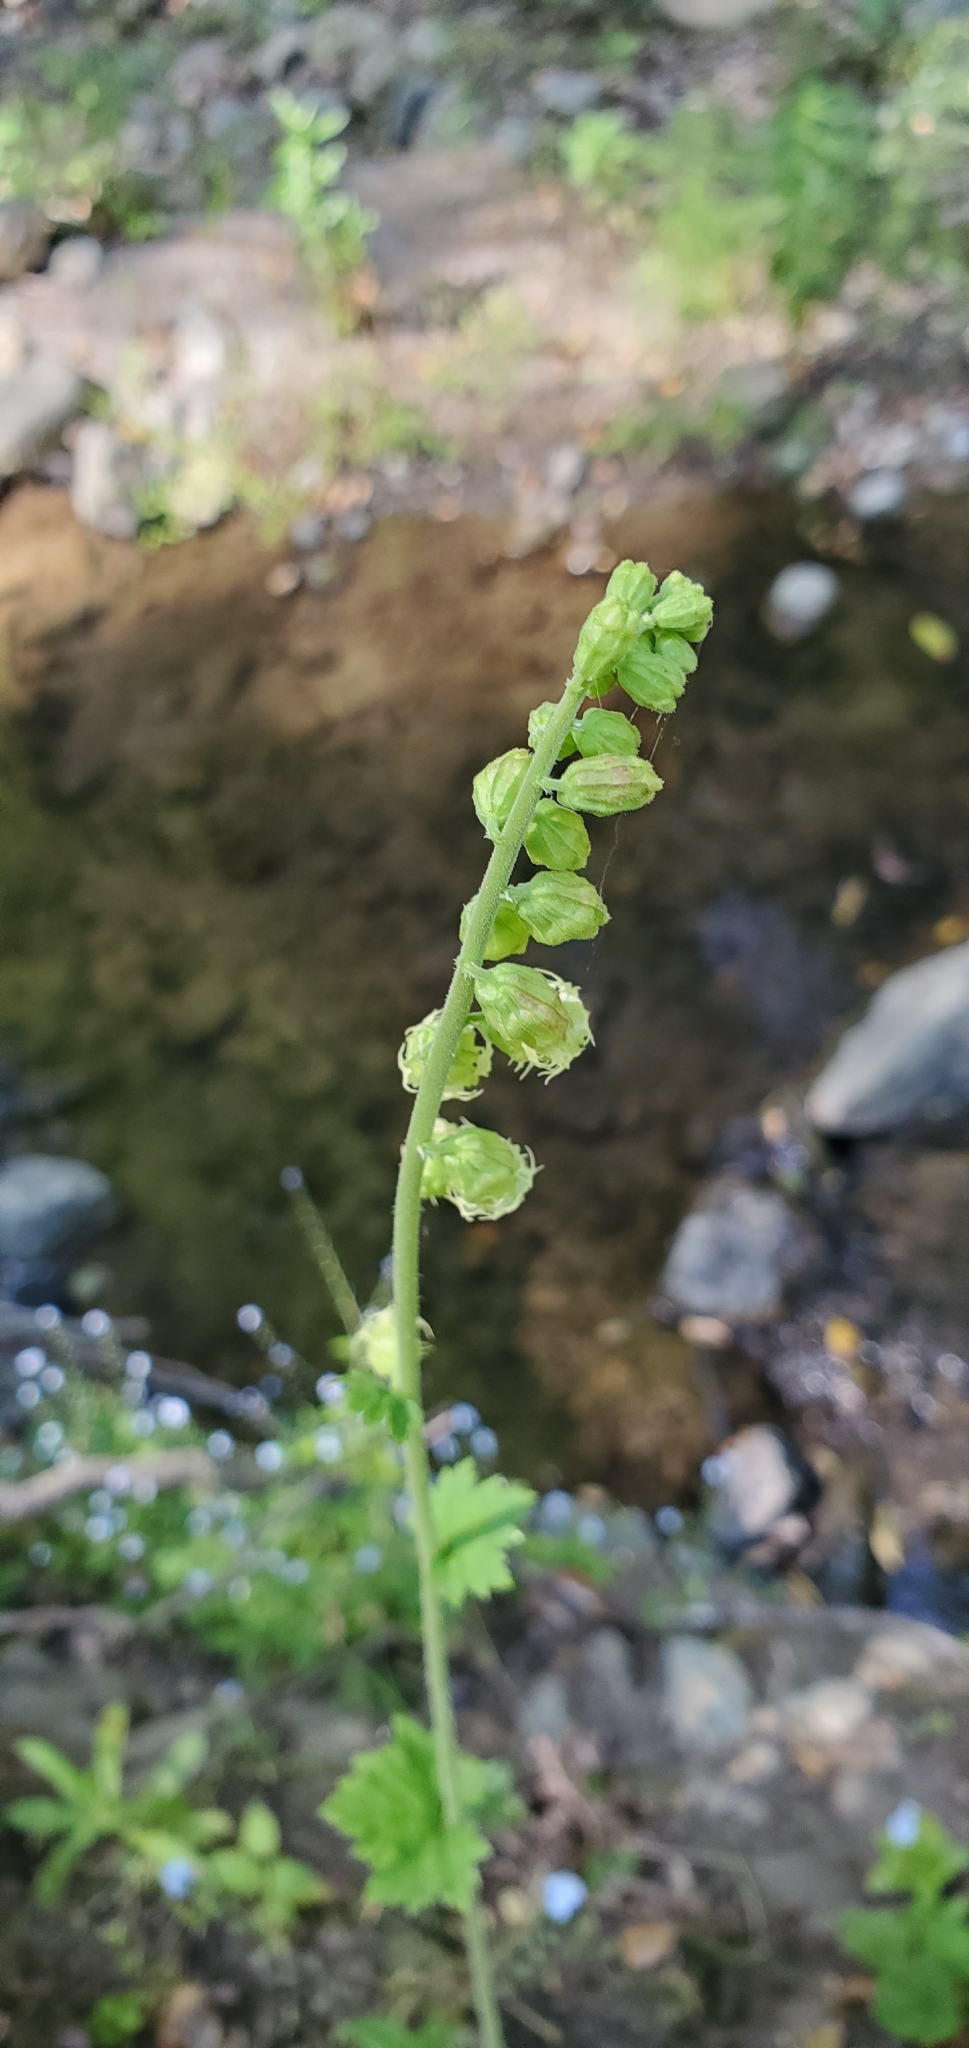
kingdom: Plantae
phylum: Tracheophyta
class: Magnoliopsida
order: Saxifragales
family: Saxifragaceae
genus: Tellima
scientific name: Tellima grandiflora
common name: Fringecups
